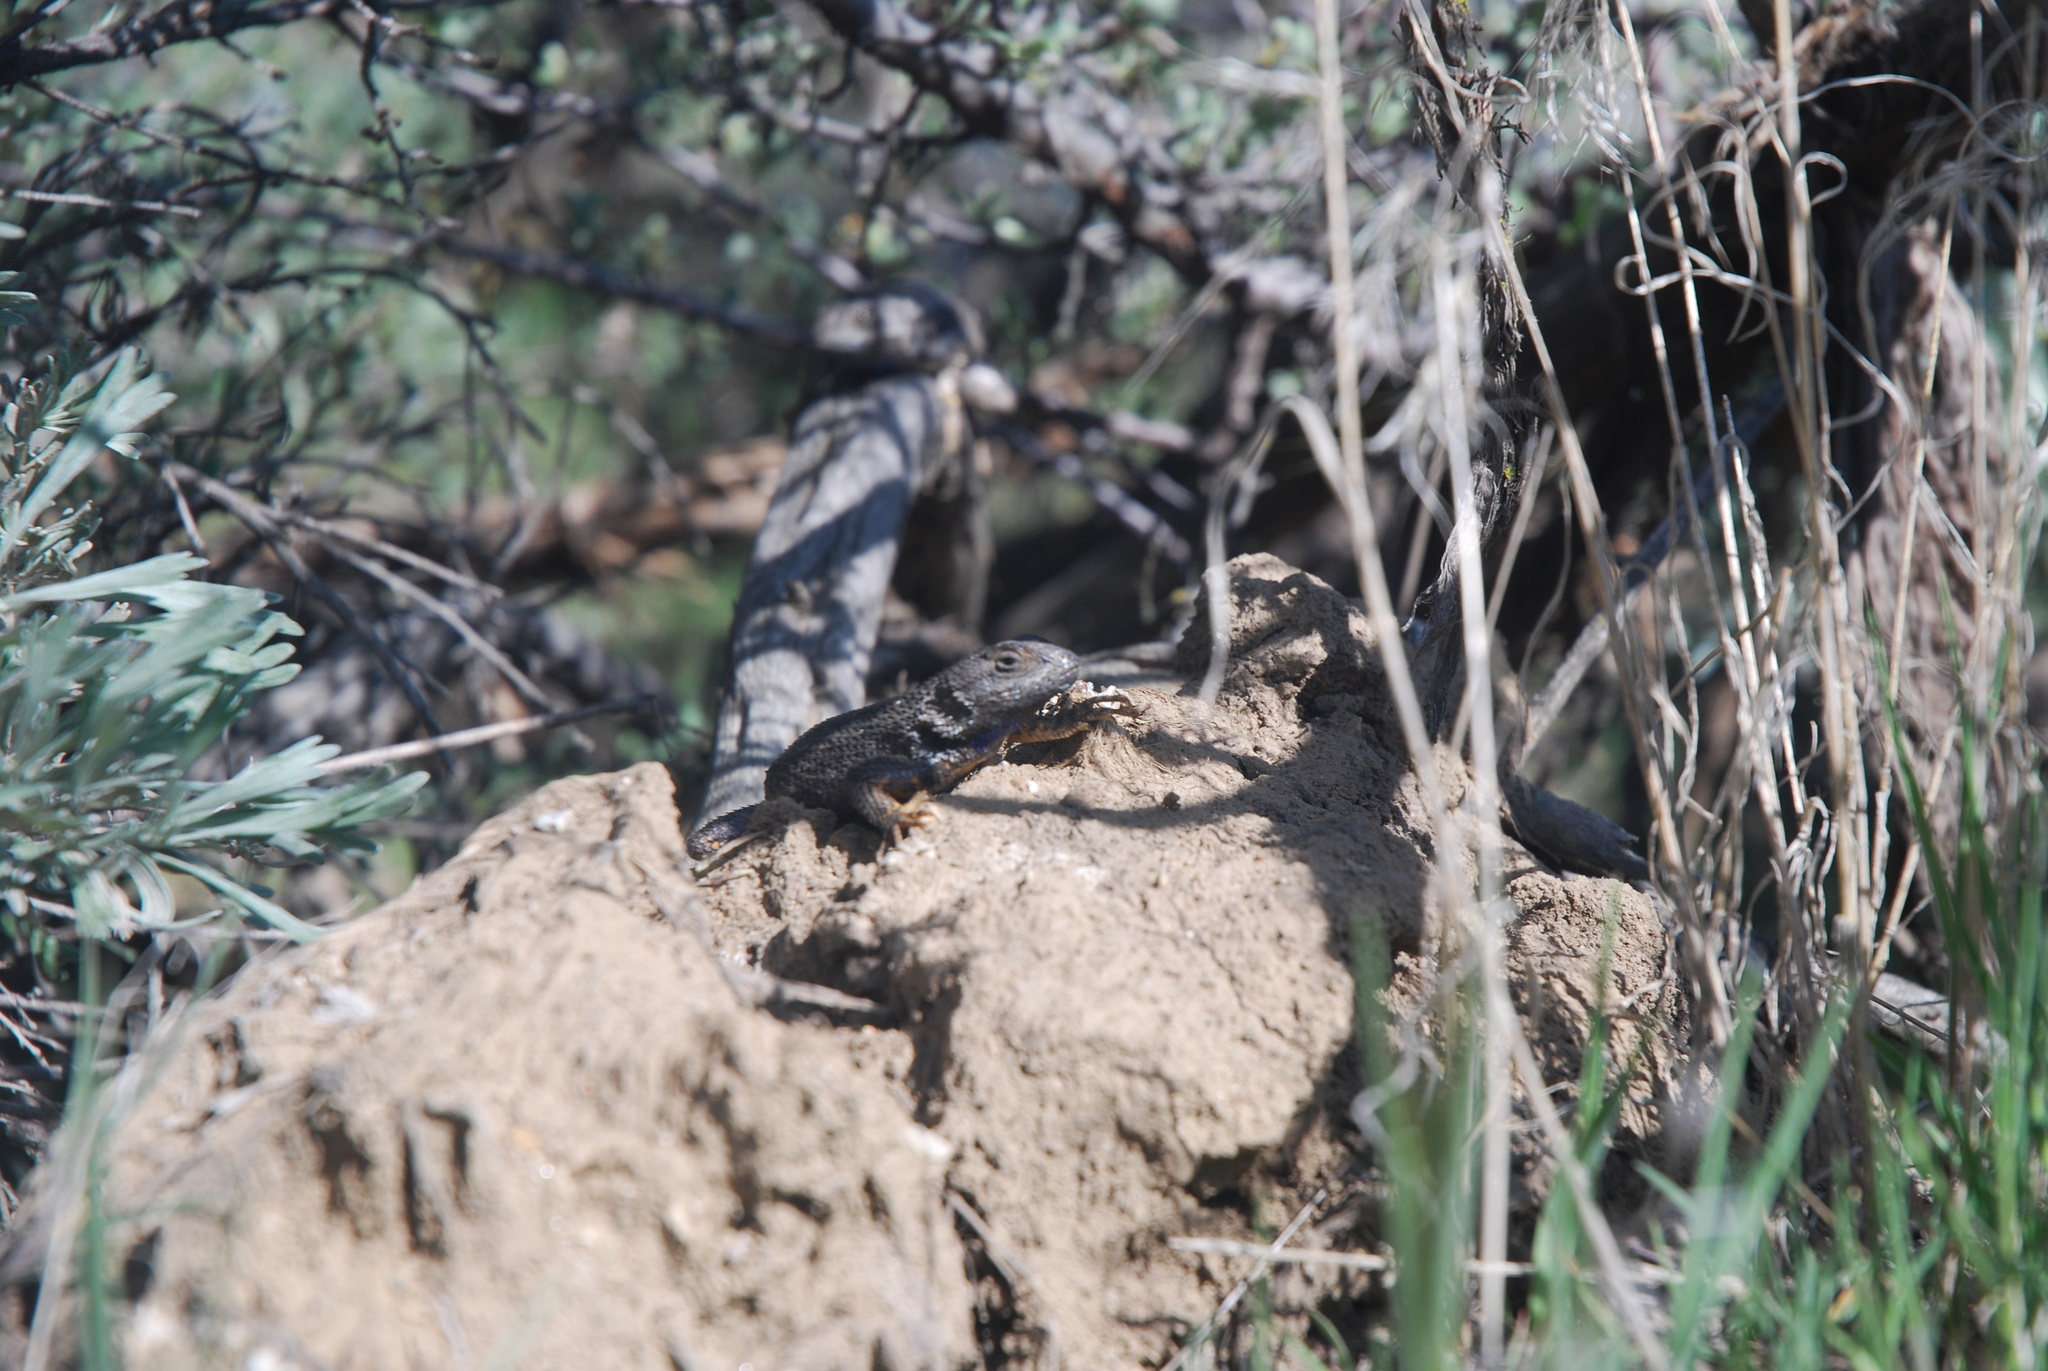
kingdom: Animalia
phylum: Chordata
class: Squamata
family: Phrynosomatidae
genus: Sceloporus
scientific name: Sceloporus occidentalis
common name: Western fence lizard
